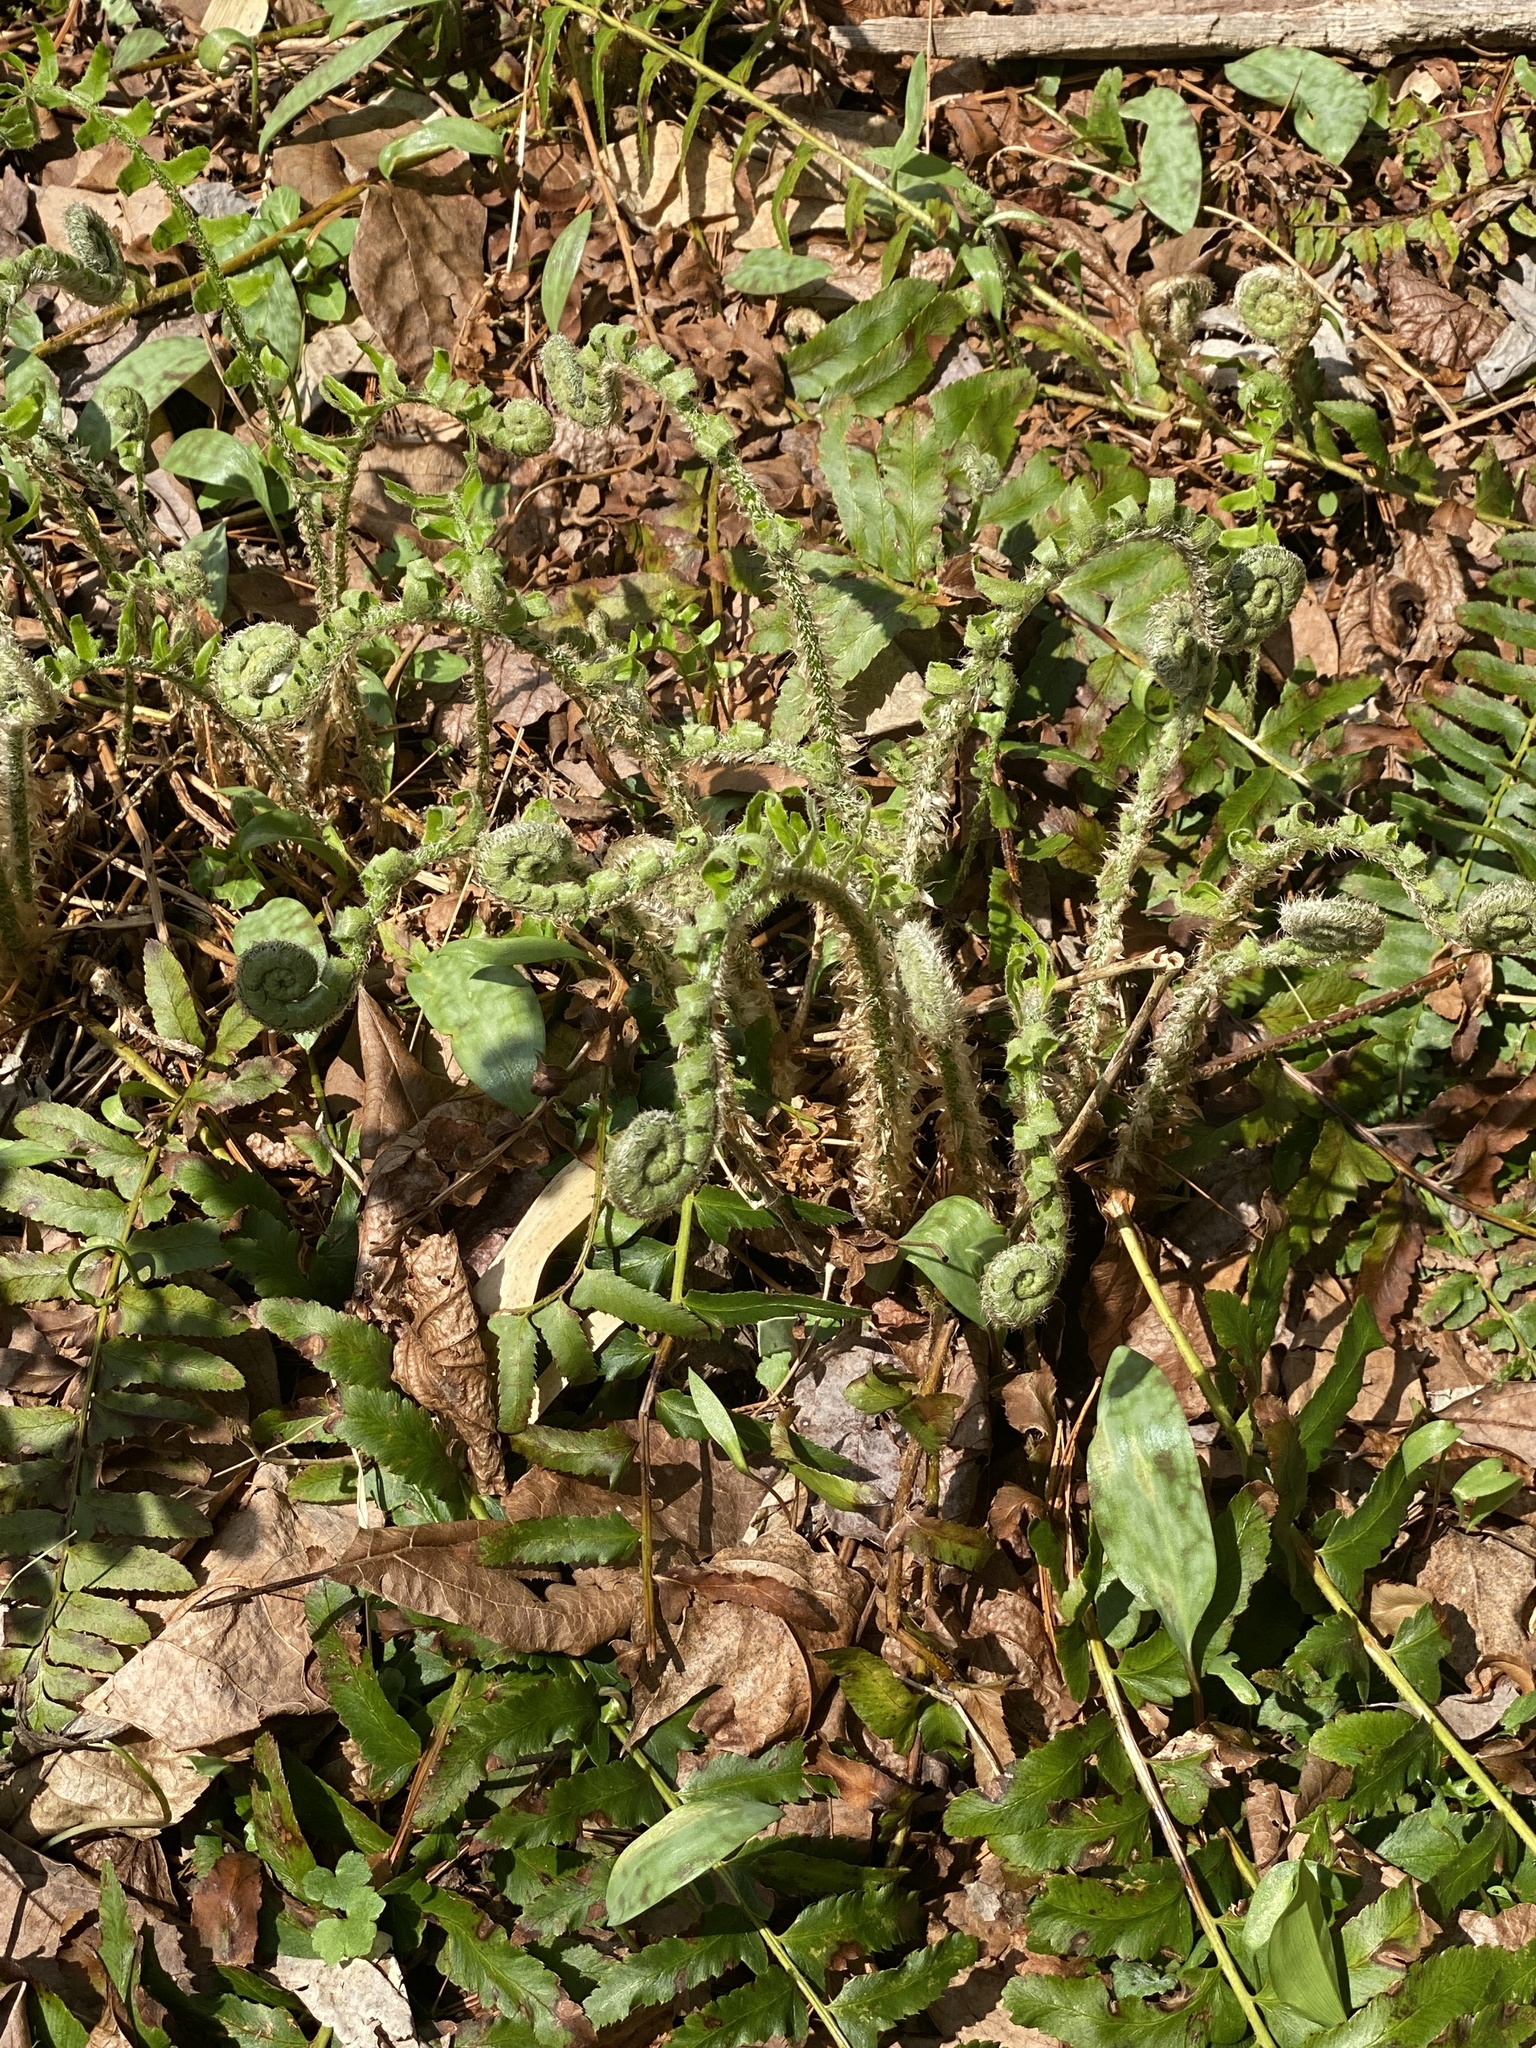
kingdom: Plantae
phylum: Tracheophyta
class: Polypodiopsida
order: Polypodiales
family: Dryopteridaceae
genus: Polystichum
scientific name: Polystichum acrostichoides
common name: Christmas fern
